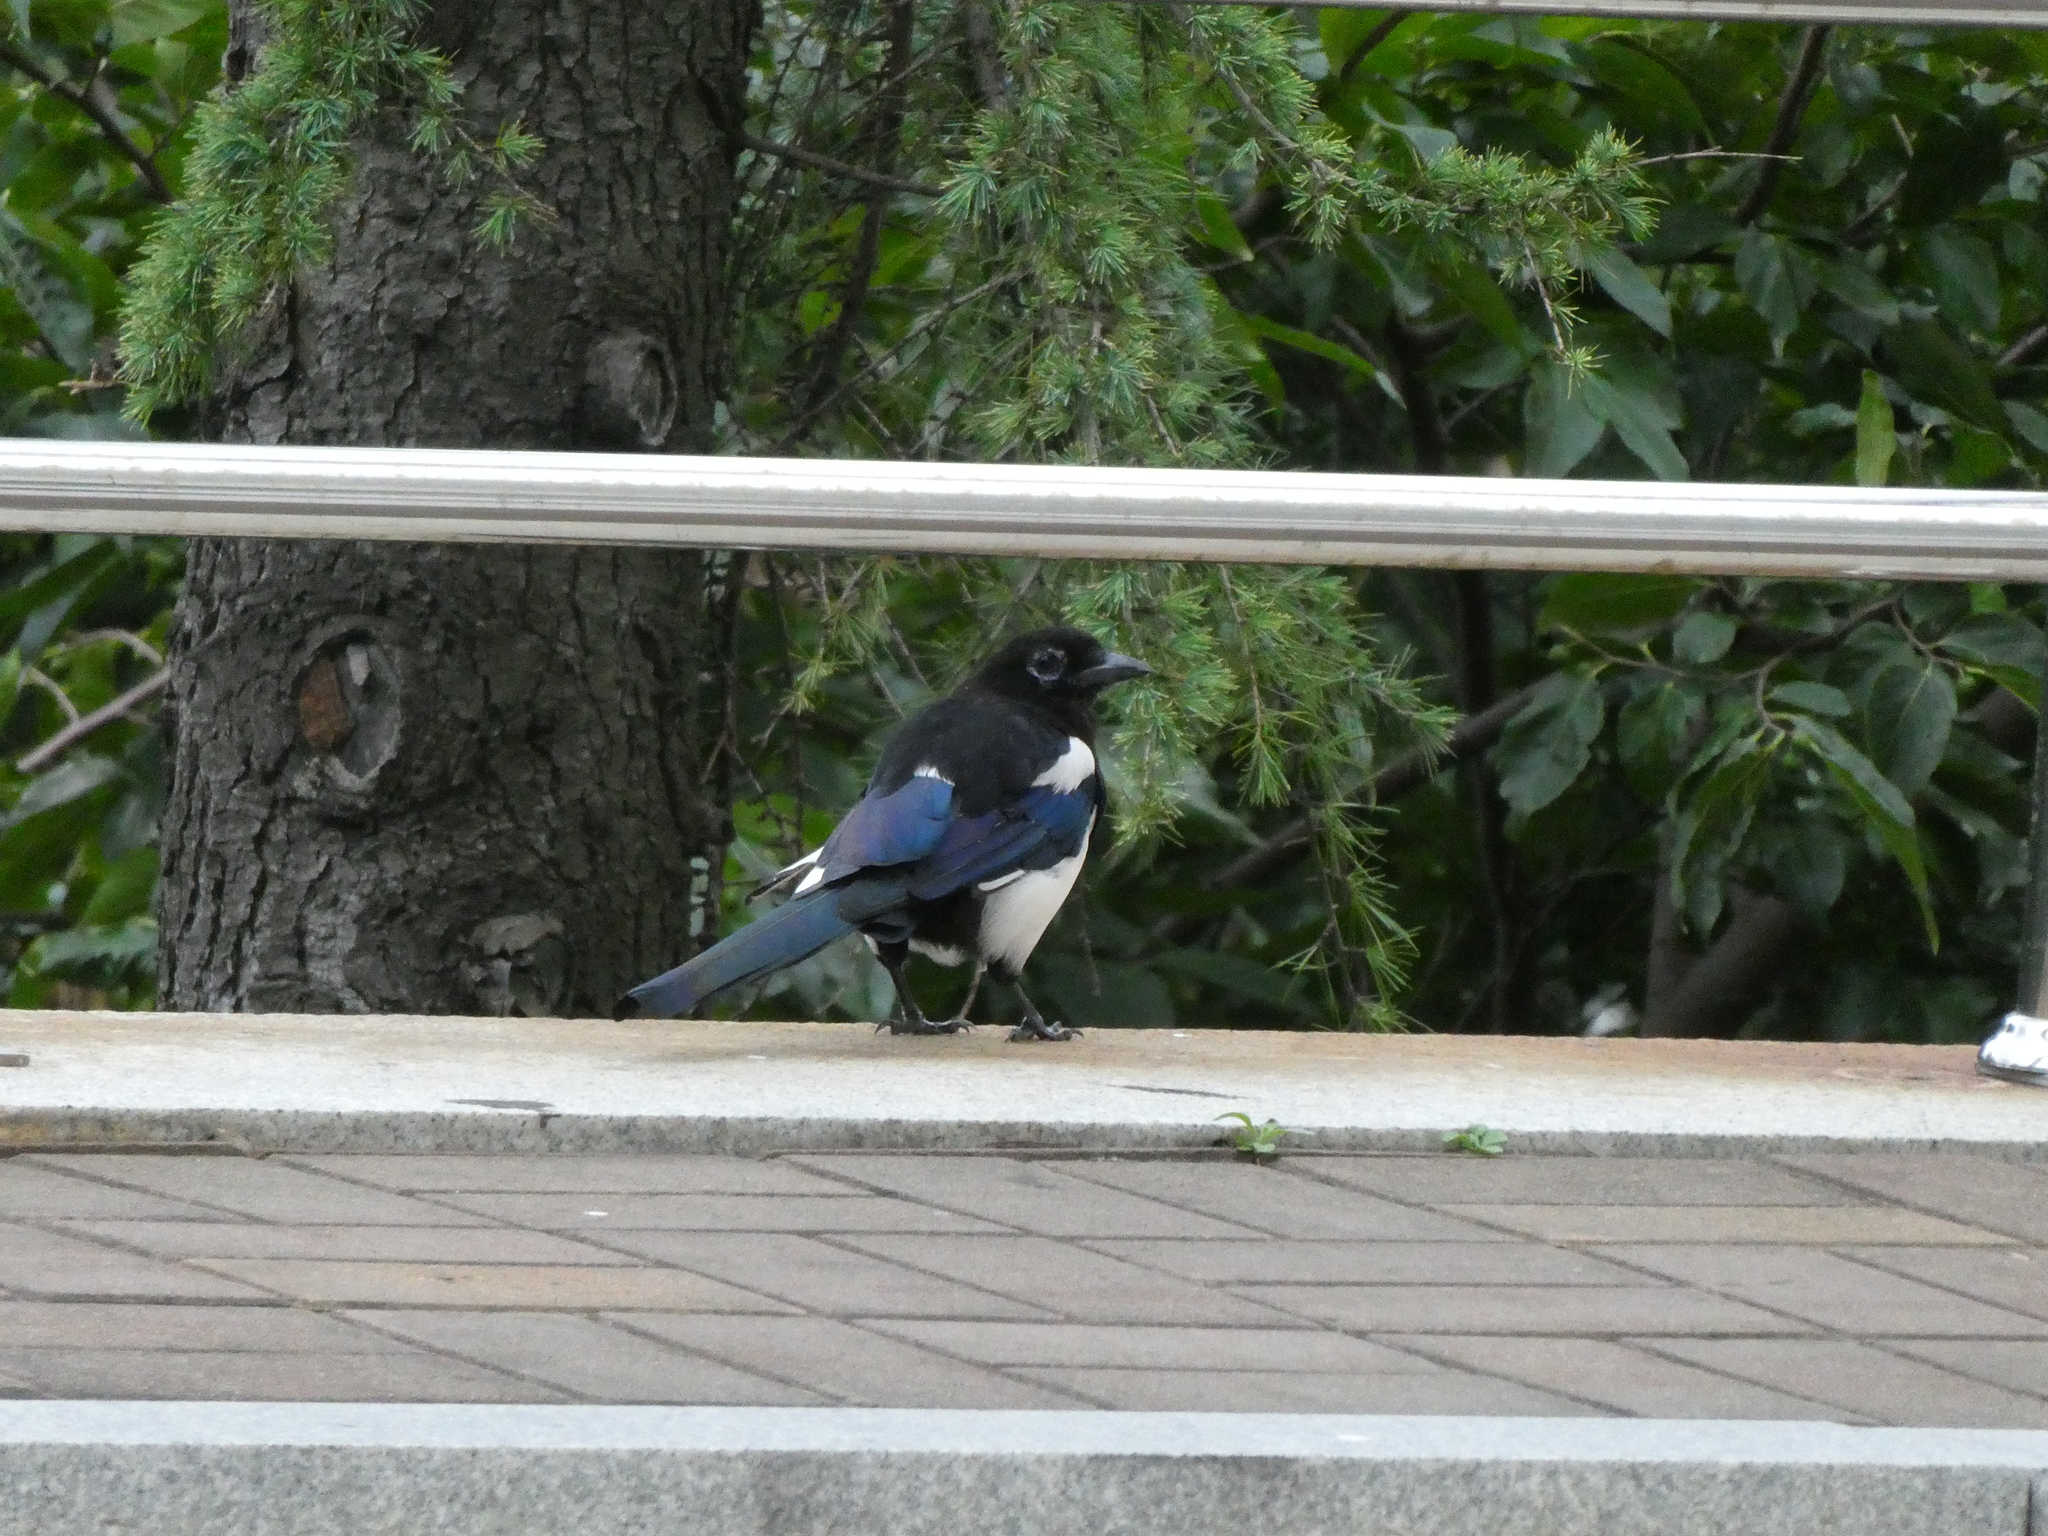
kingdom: Animalia
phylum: Chordata
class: Aves
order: Passeriformes
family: Corvidae
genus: Pica
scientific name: Pica serica
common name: Oriental magpie
